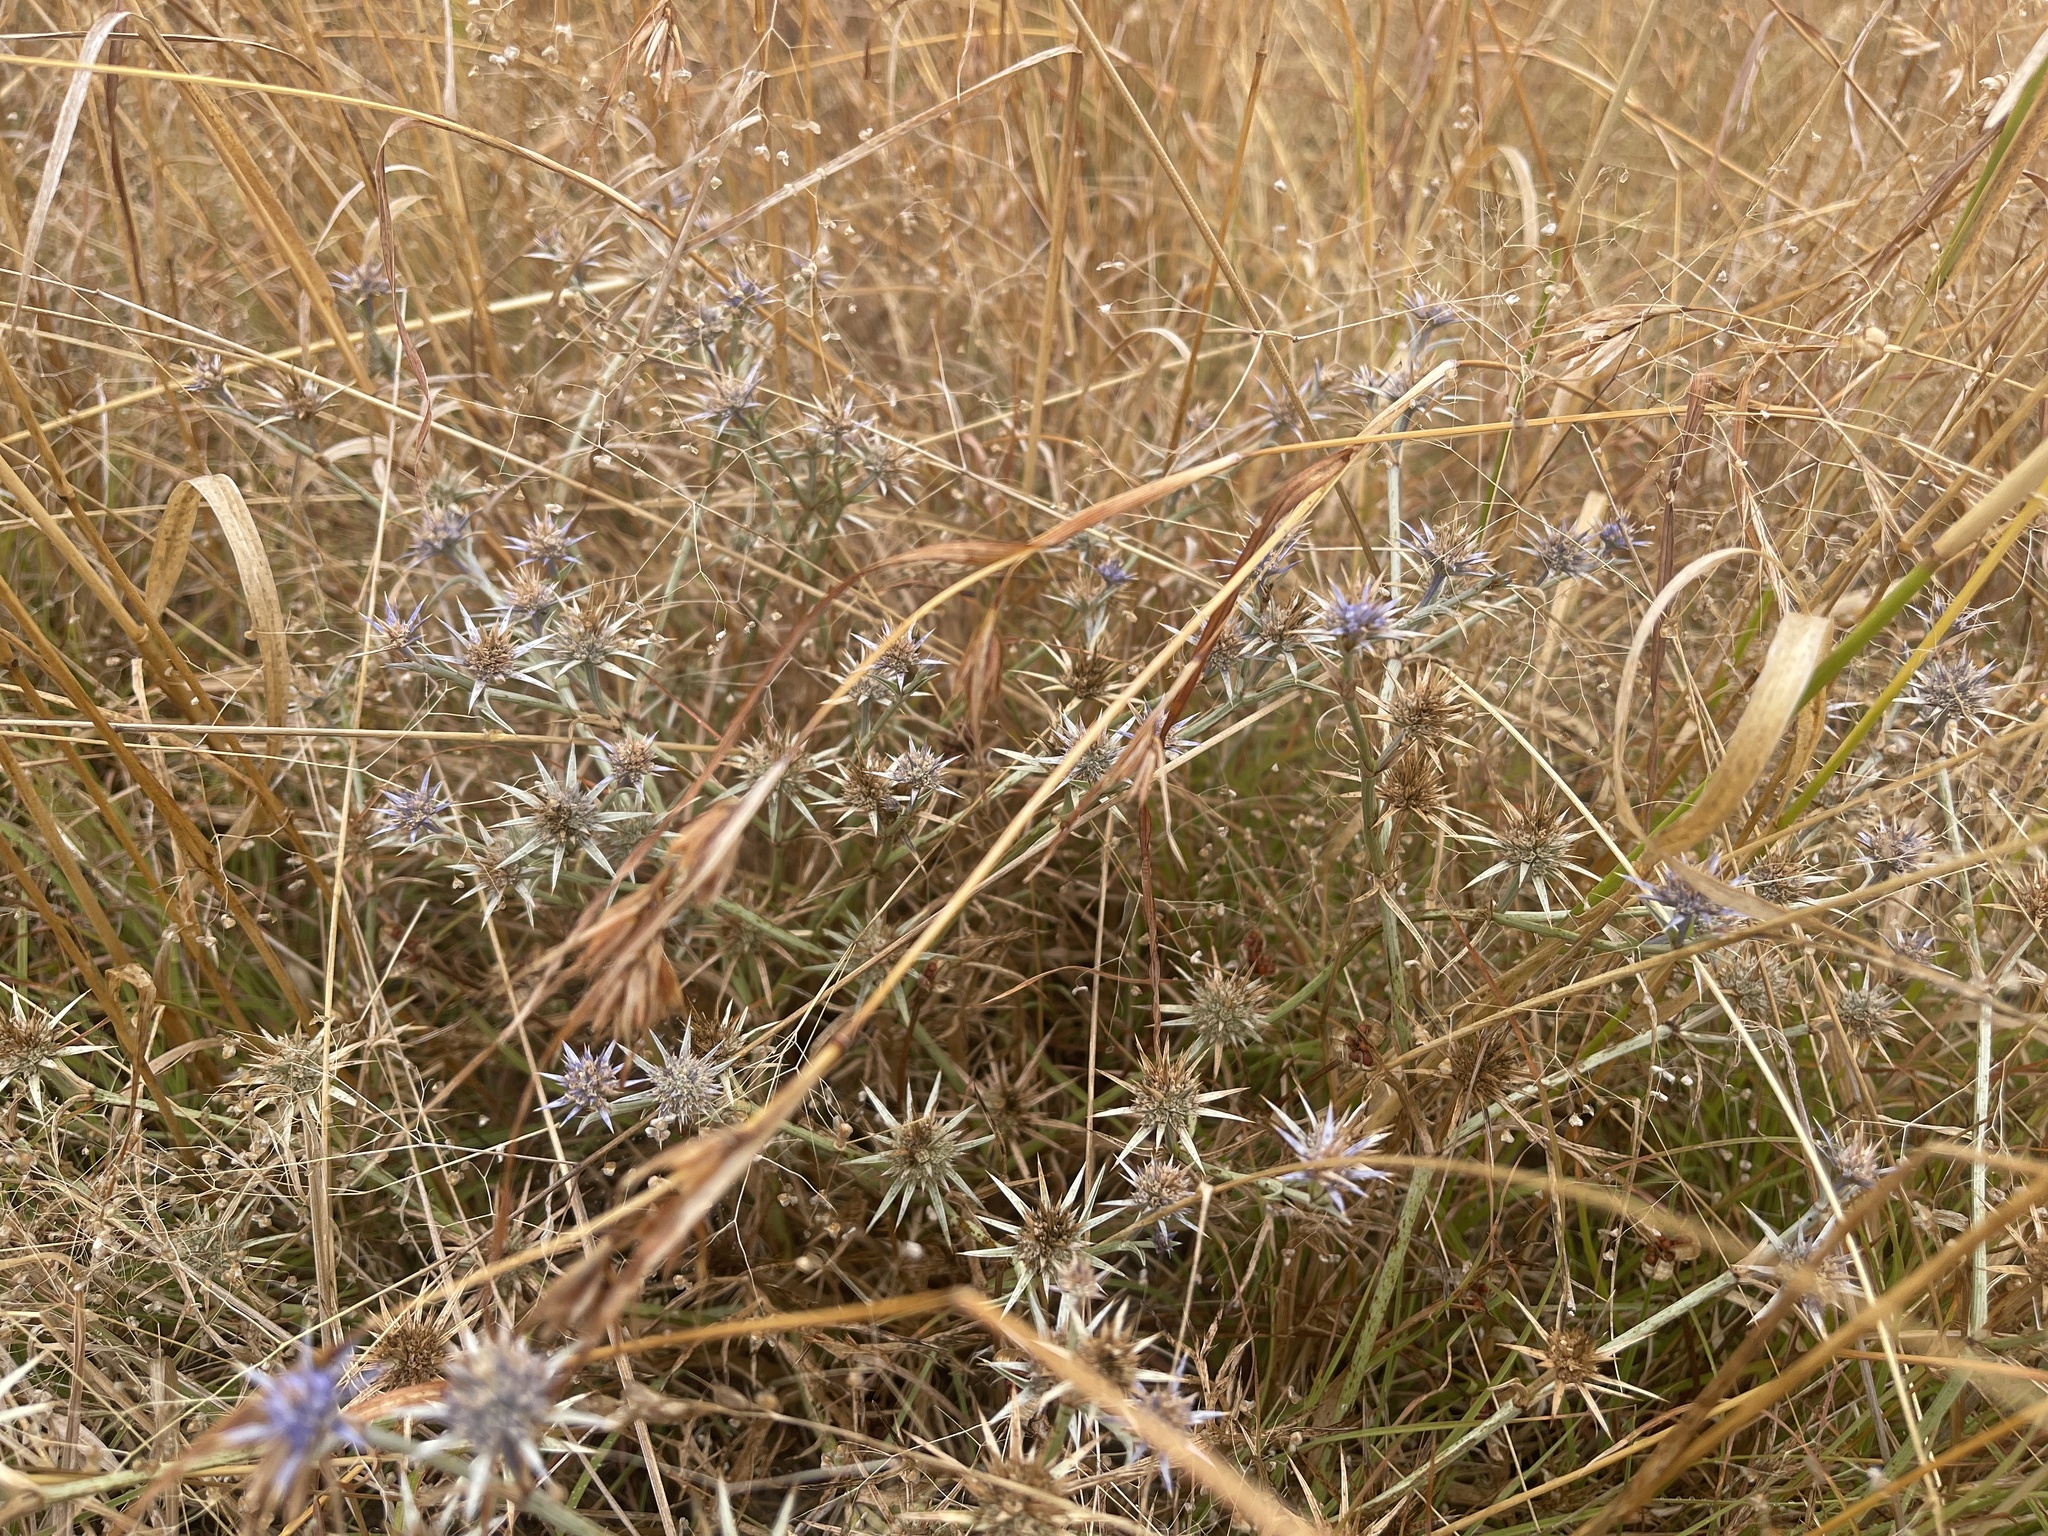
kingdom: Plantae
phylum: Tracheophyta
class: Magnoliopsida
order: Apiales
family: Apiaceae
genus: Eryngium
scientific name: Eryngium ovinum
